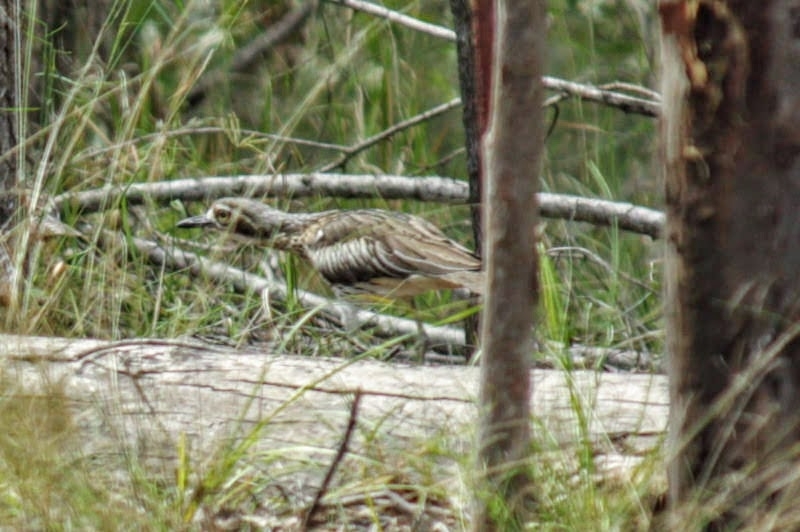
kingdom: Animalia
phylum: Chordata
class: Aves
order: Charadriiformes
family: Burhinidae
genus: Burhinus
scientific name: Burhinus grallarius
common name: Bush stone-curlew
